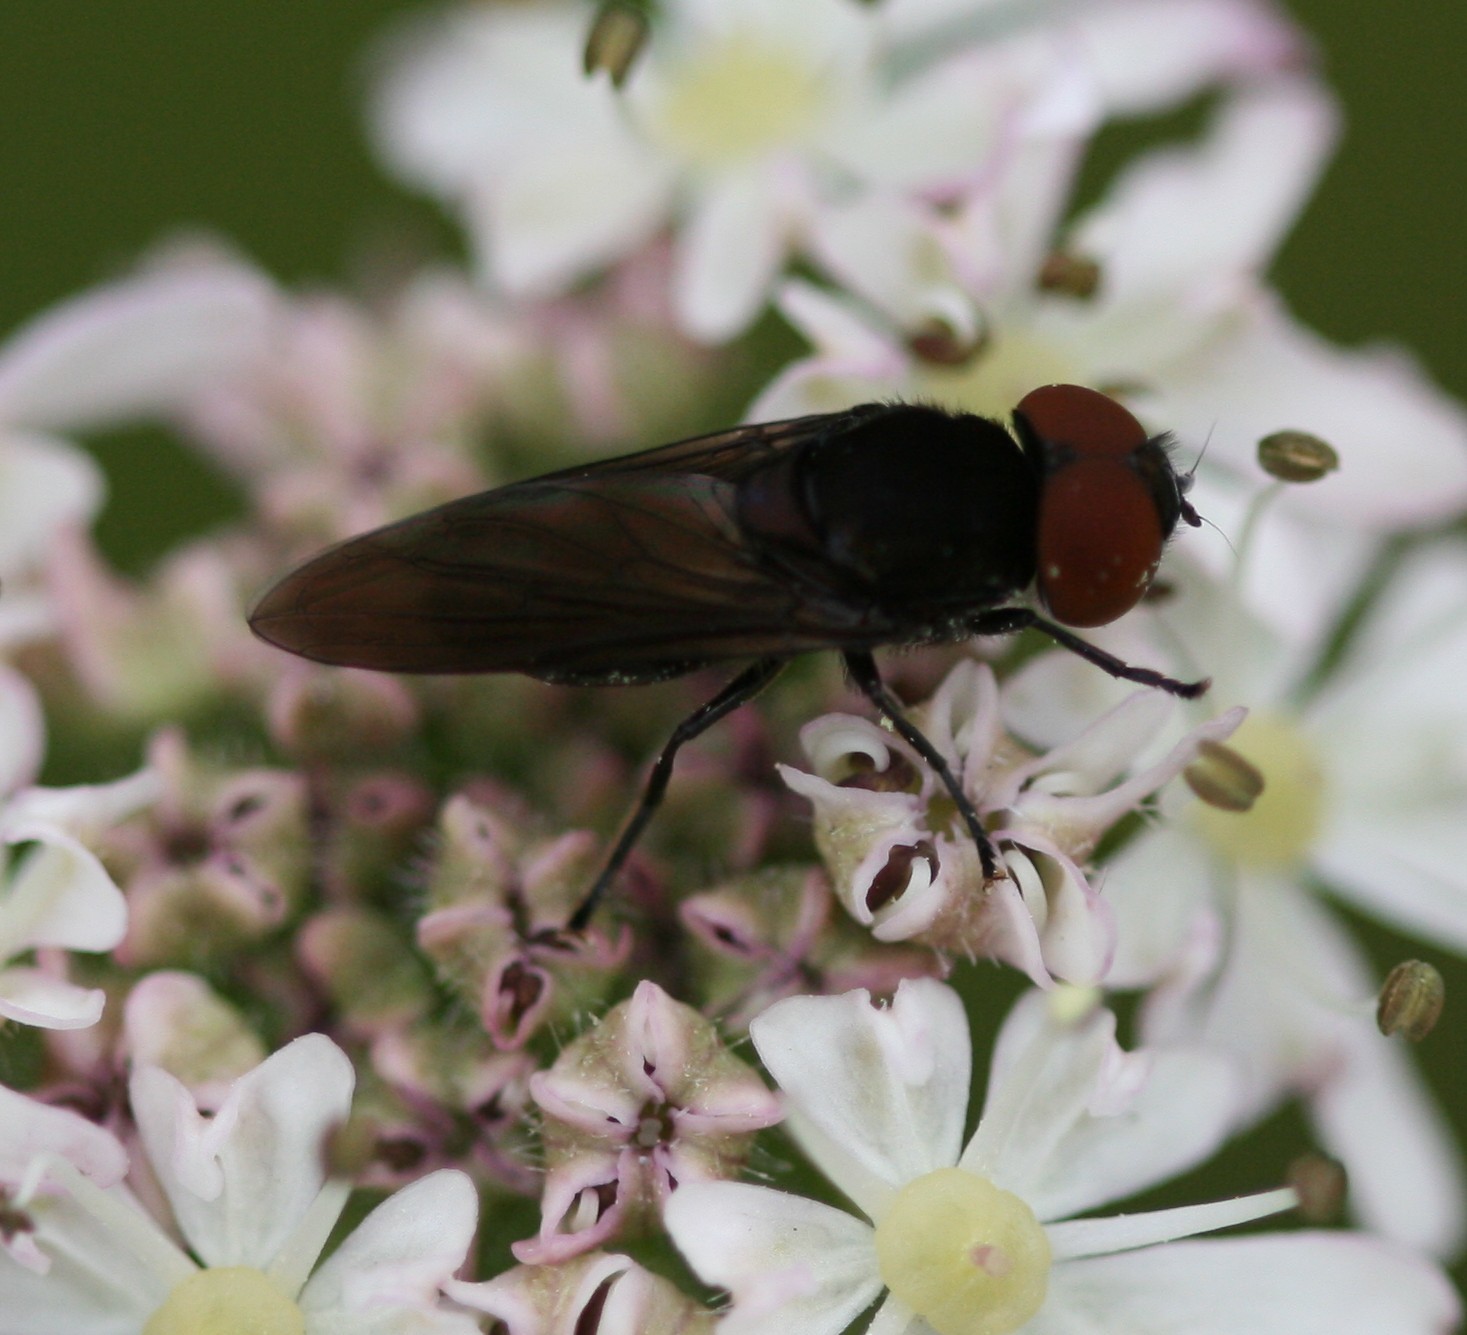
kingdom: Animalia
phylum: Arthropoda
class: Insecta
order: Diptera
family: Syrphidae
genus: Chrysogaster
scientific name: Chrysogaster solstitialis
